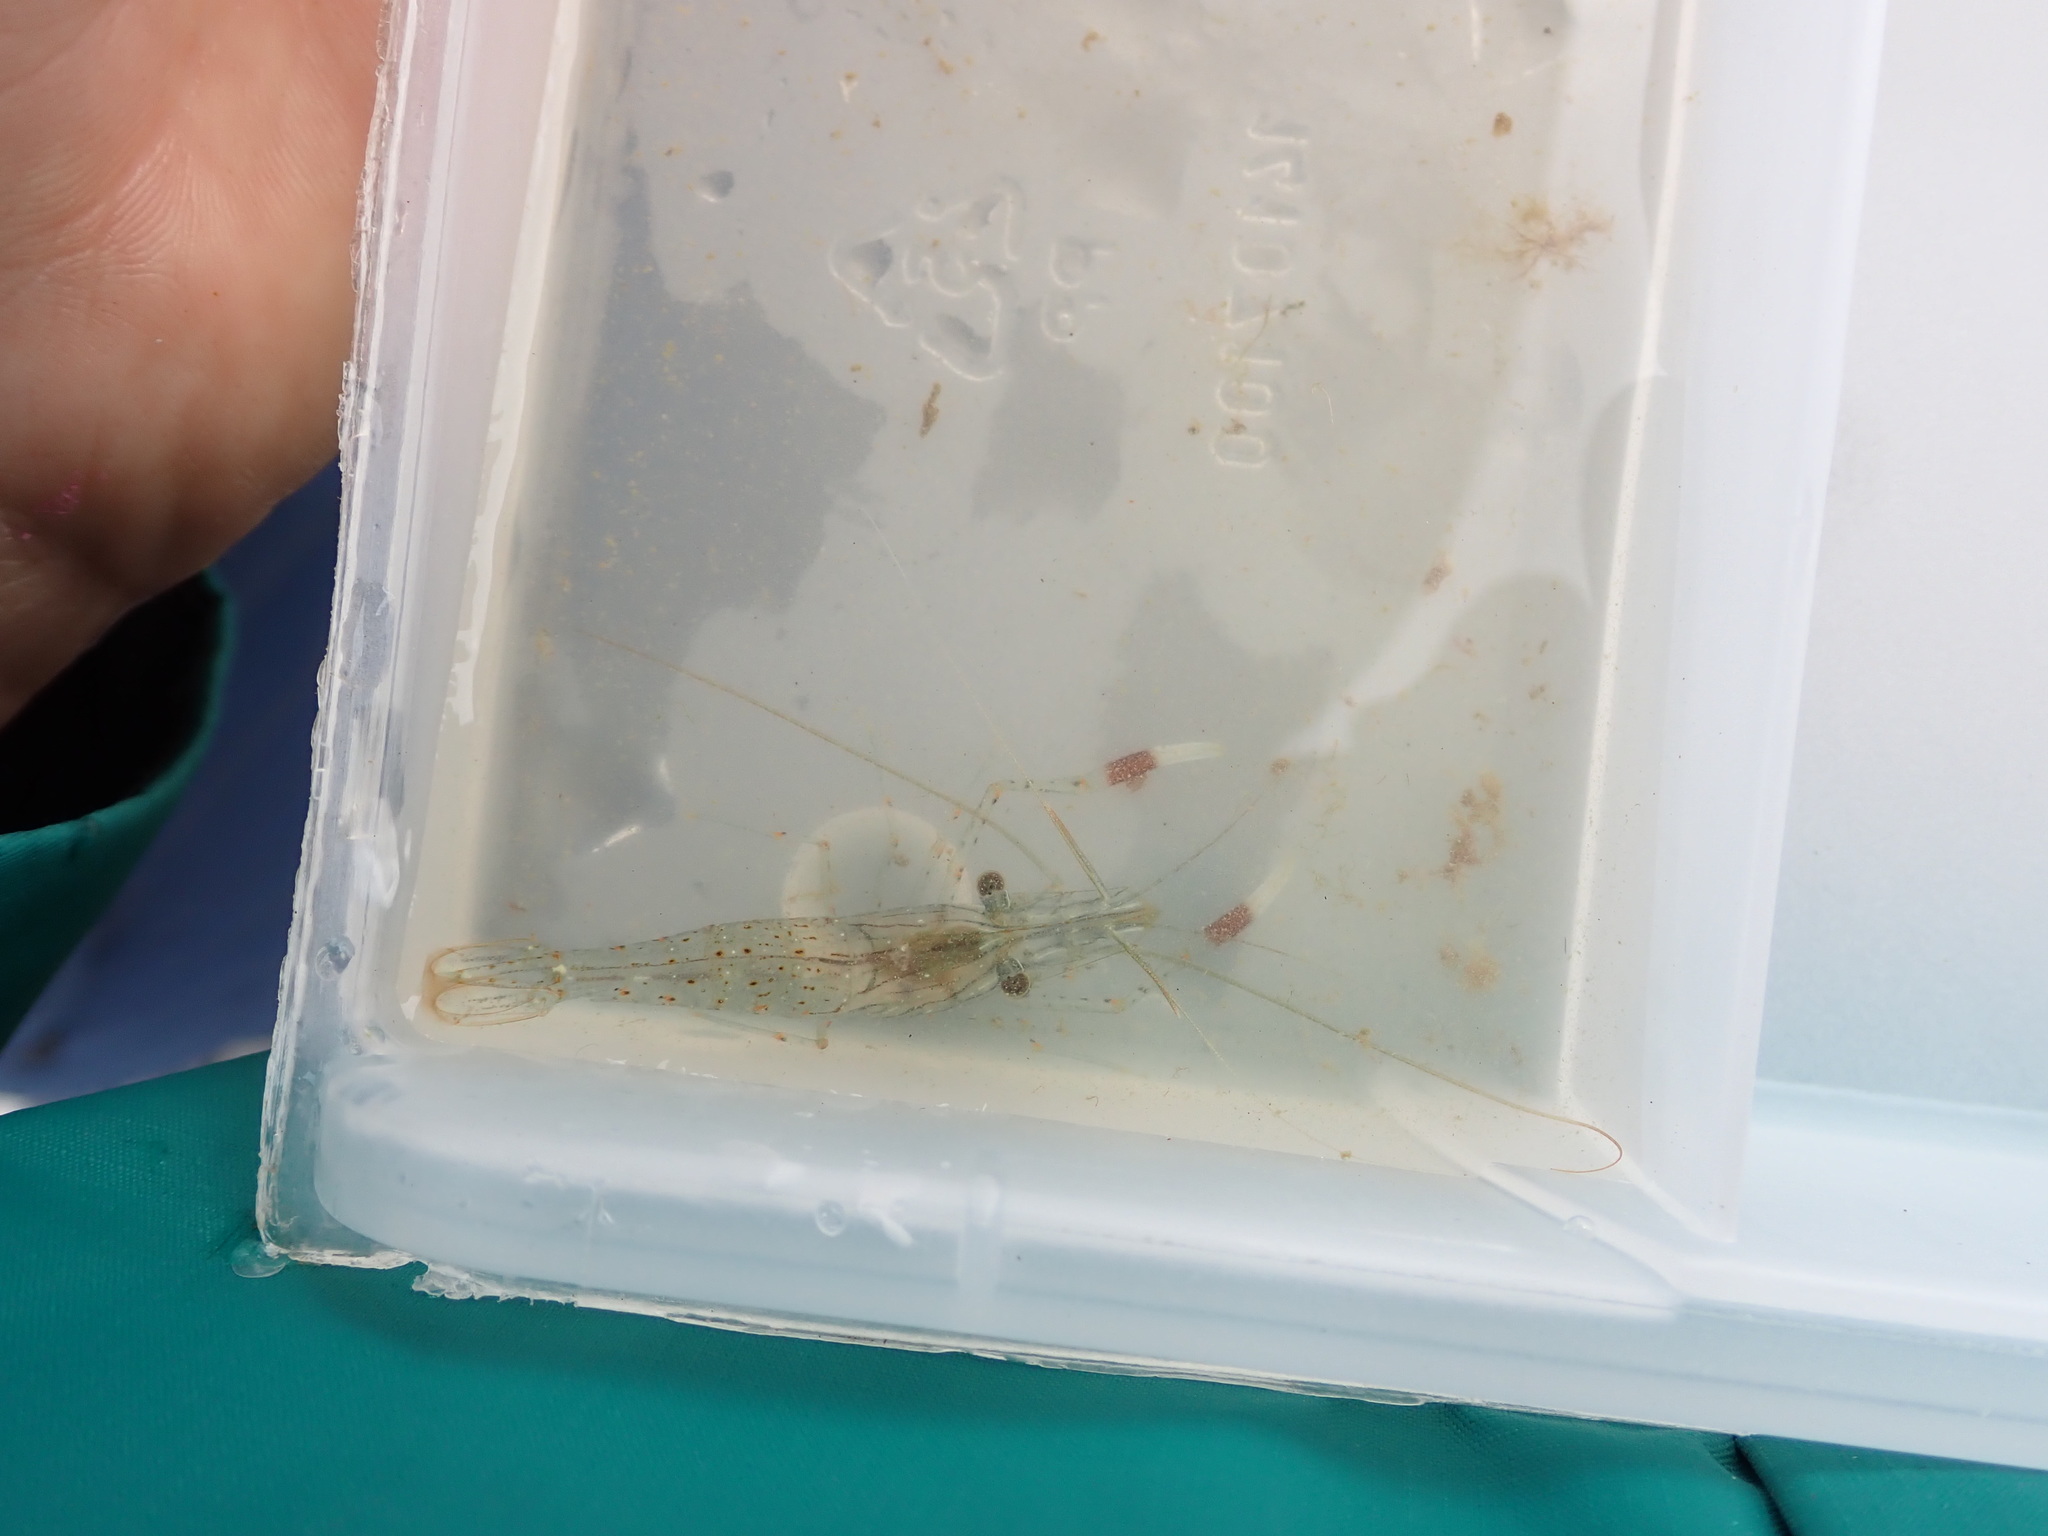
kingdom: Animalia
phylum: Arthropoda
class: Malacostraca
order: Decapoda
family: Palaemonidae
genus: Palaemon
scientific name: Palaemon serenus
